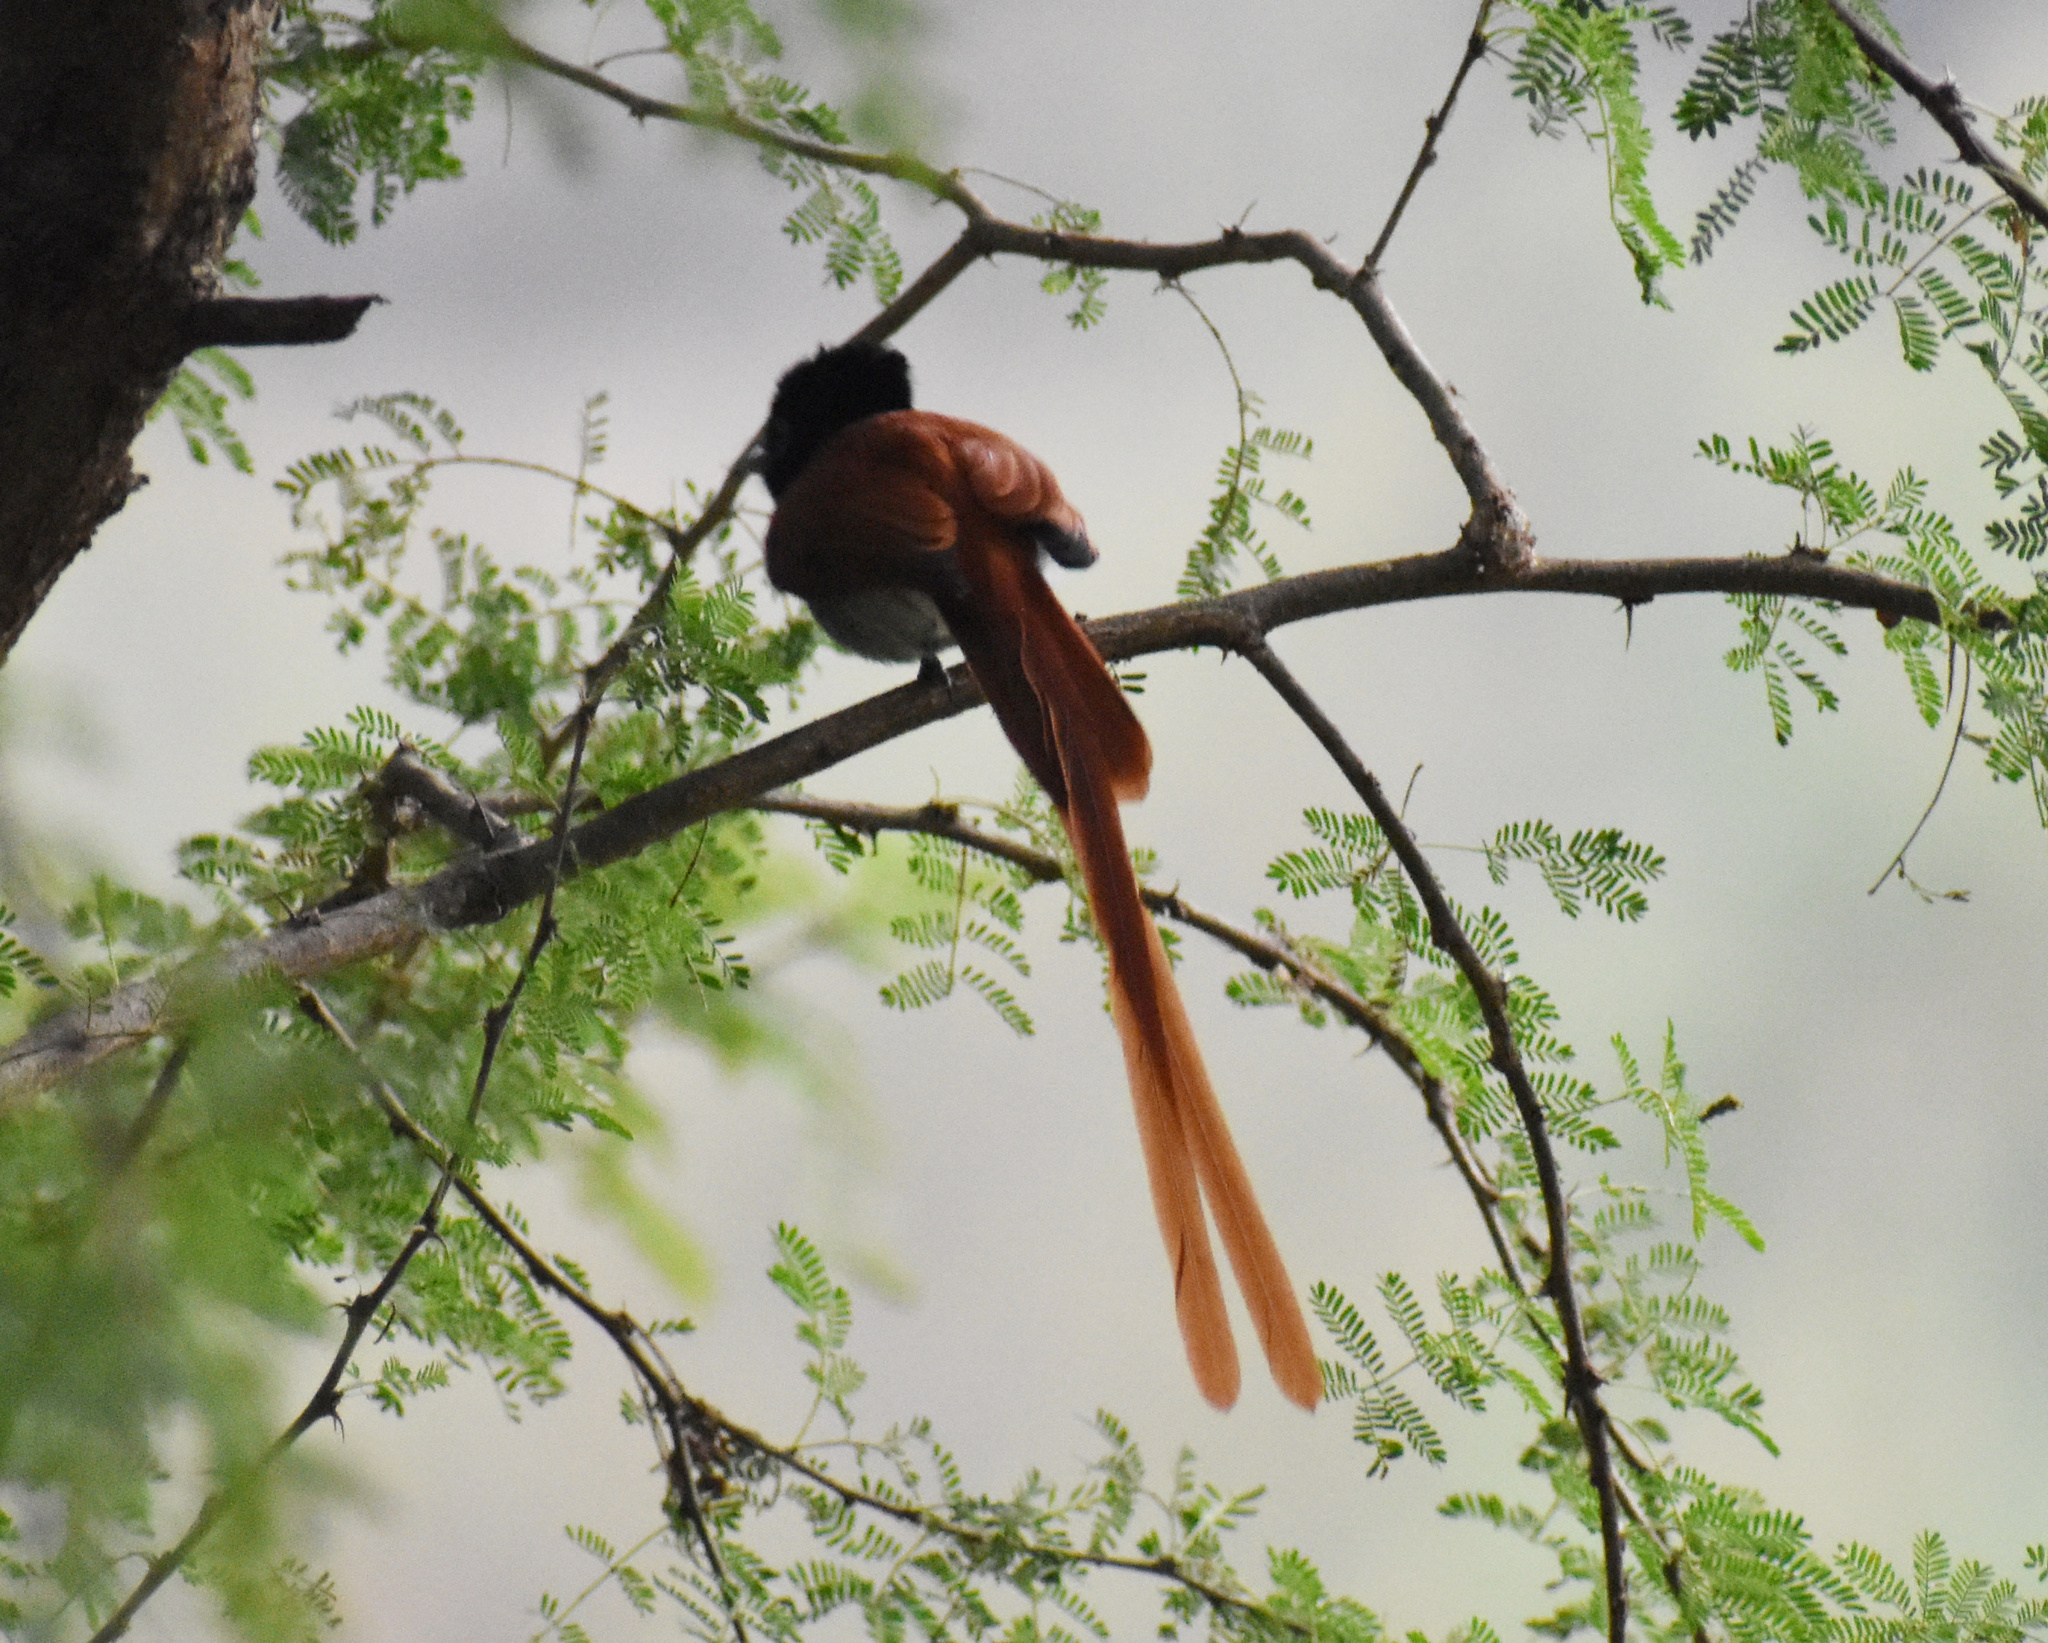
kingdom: Animalia
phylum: Chordata
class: Aves
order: Passeriformes
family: Monarchidae
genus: Terpsiphone
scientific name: Terpsiphone viridis
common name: African paradise flycatcher
